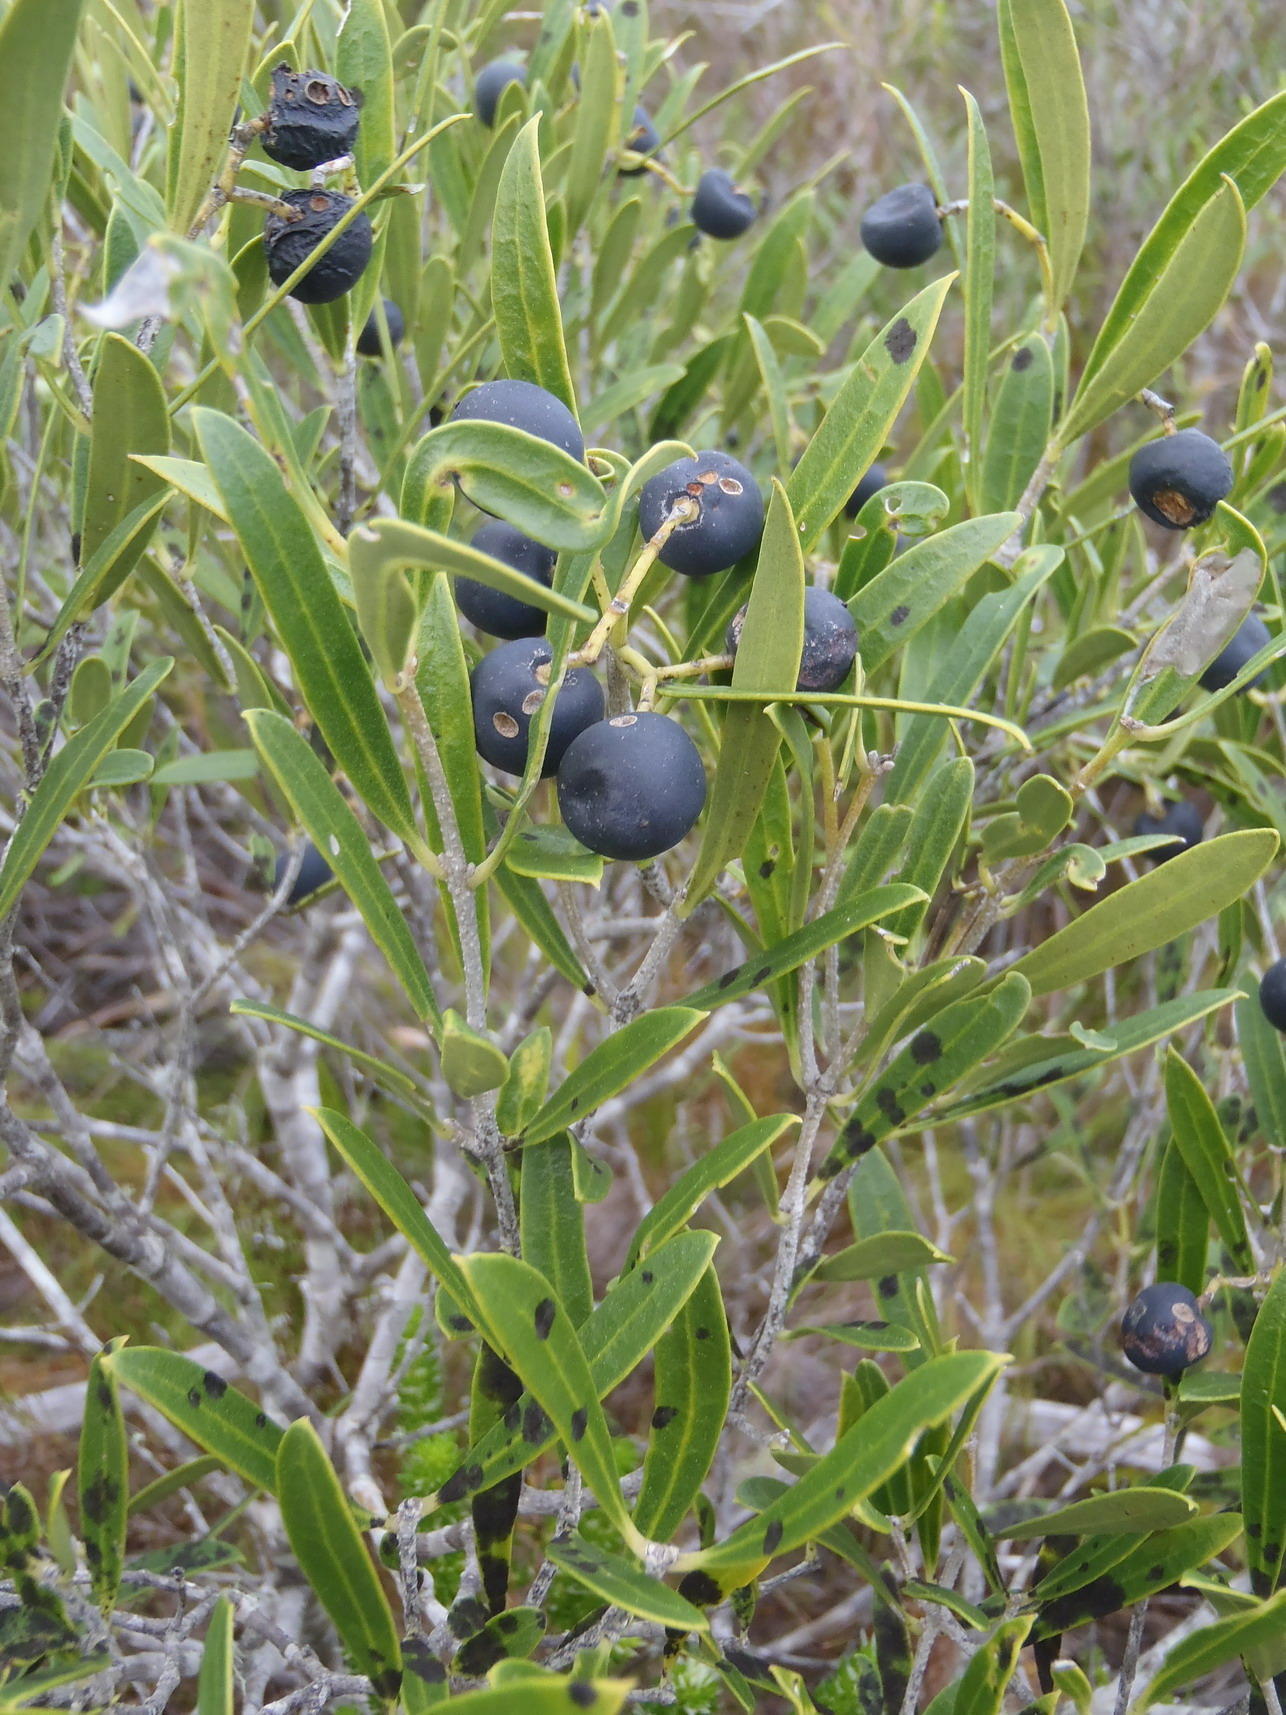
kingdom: Plantae
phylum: Tracheophyta
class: Magnoliopsida
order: Lamiales
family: Oleaceae
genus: Olea
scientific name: Olea exasperata
